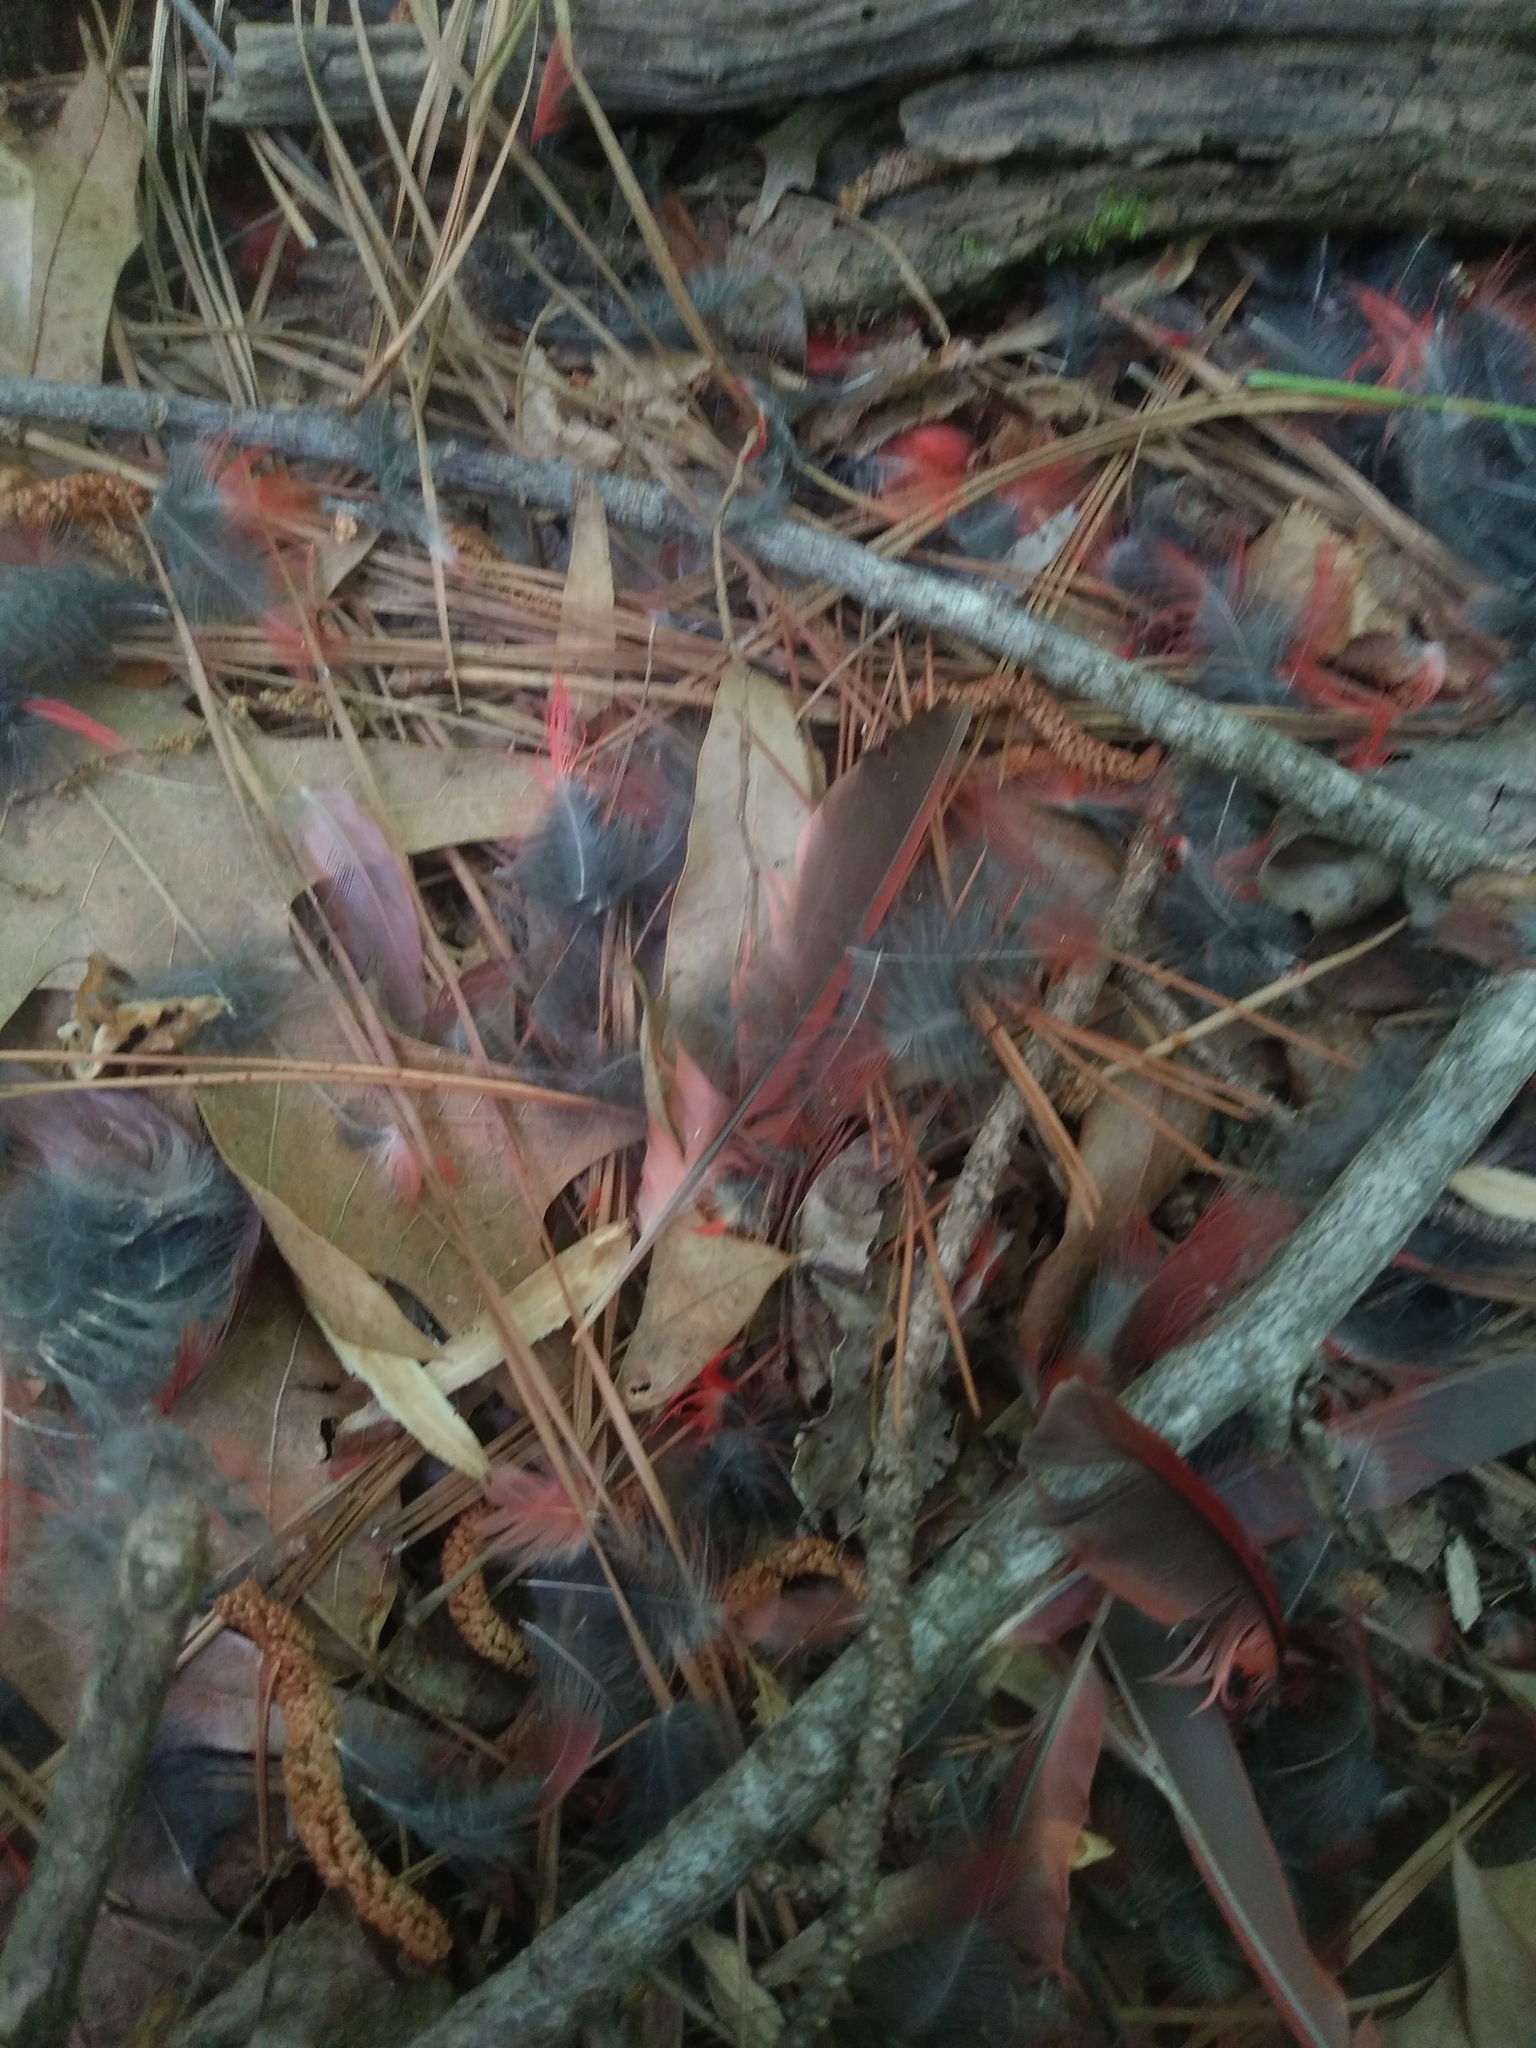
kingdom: Animalia
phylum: Chordata
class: Aves
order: Passeriformes
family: Cardinalidae
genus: Cardinalis
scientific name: Cardinalis cardinalis
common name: Northern cardinal
